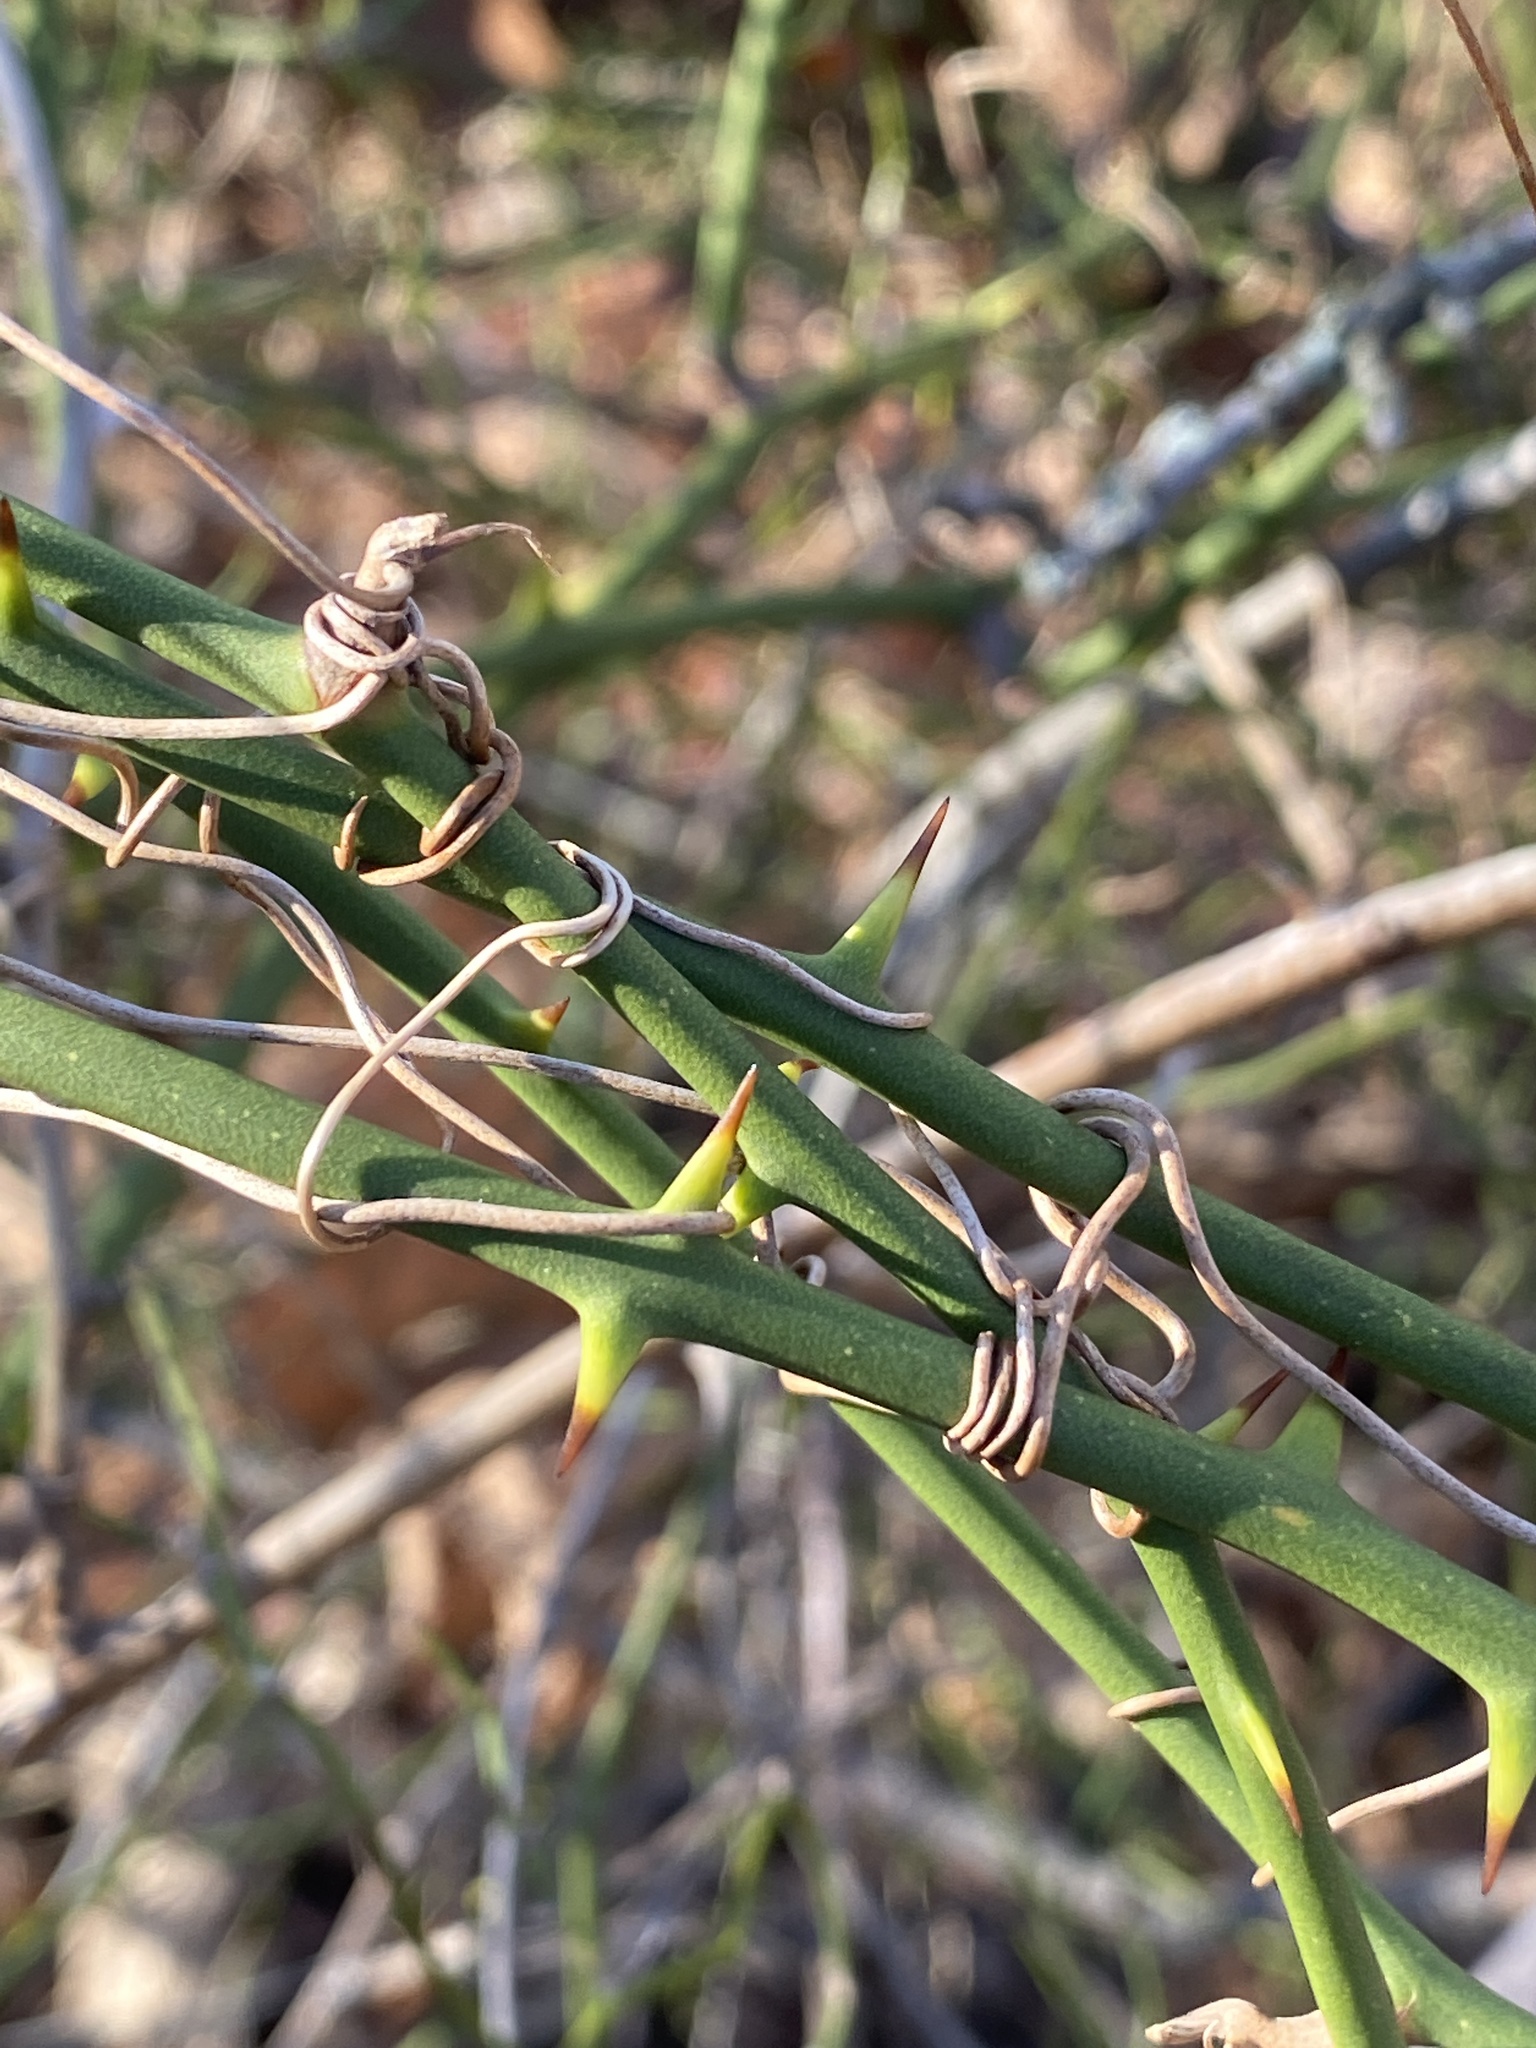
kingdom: Plantae
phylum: Tracheophyta
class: Liliopsida
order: Liliales
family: Smilacaceae
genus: Smilax
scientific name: Smilax rotundifolia
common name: Bullbriar
